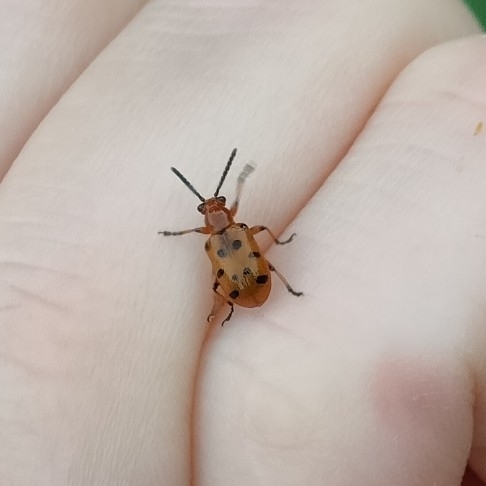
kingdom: Animalia
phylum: Arthropoda
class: Insecta
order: Coleoptera
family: Chrysomelidae
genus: Crioceris
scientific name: Crioceris duodecimpunctata
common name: Twelve-spotted asparagus beetle
